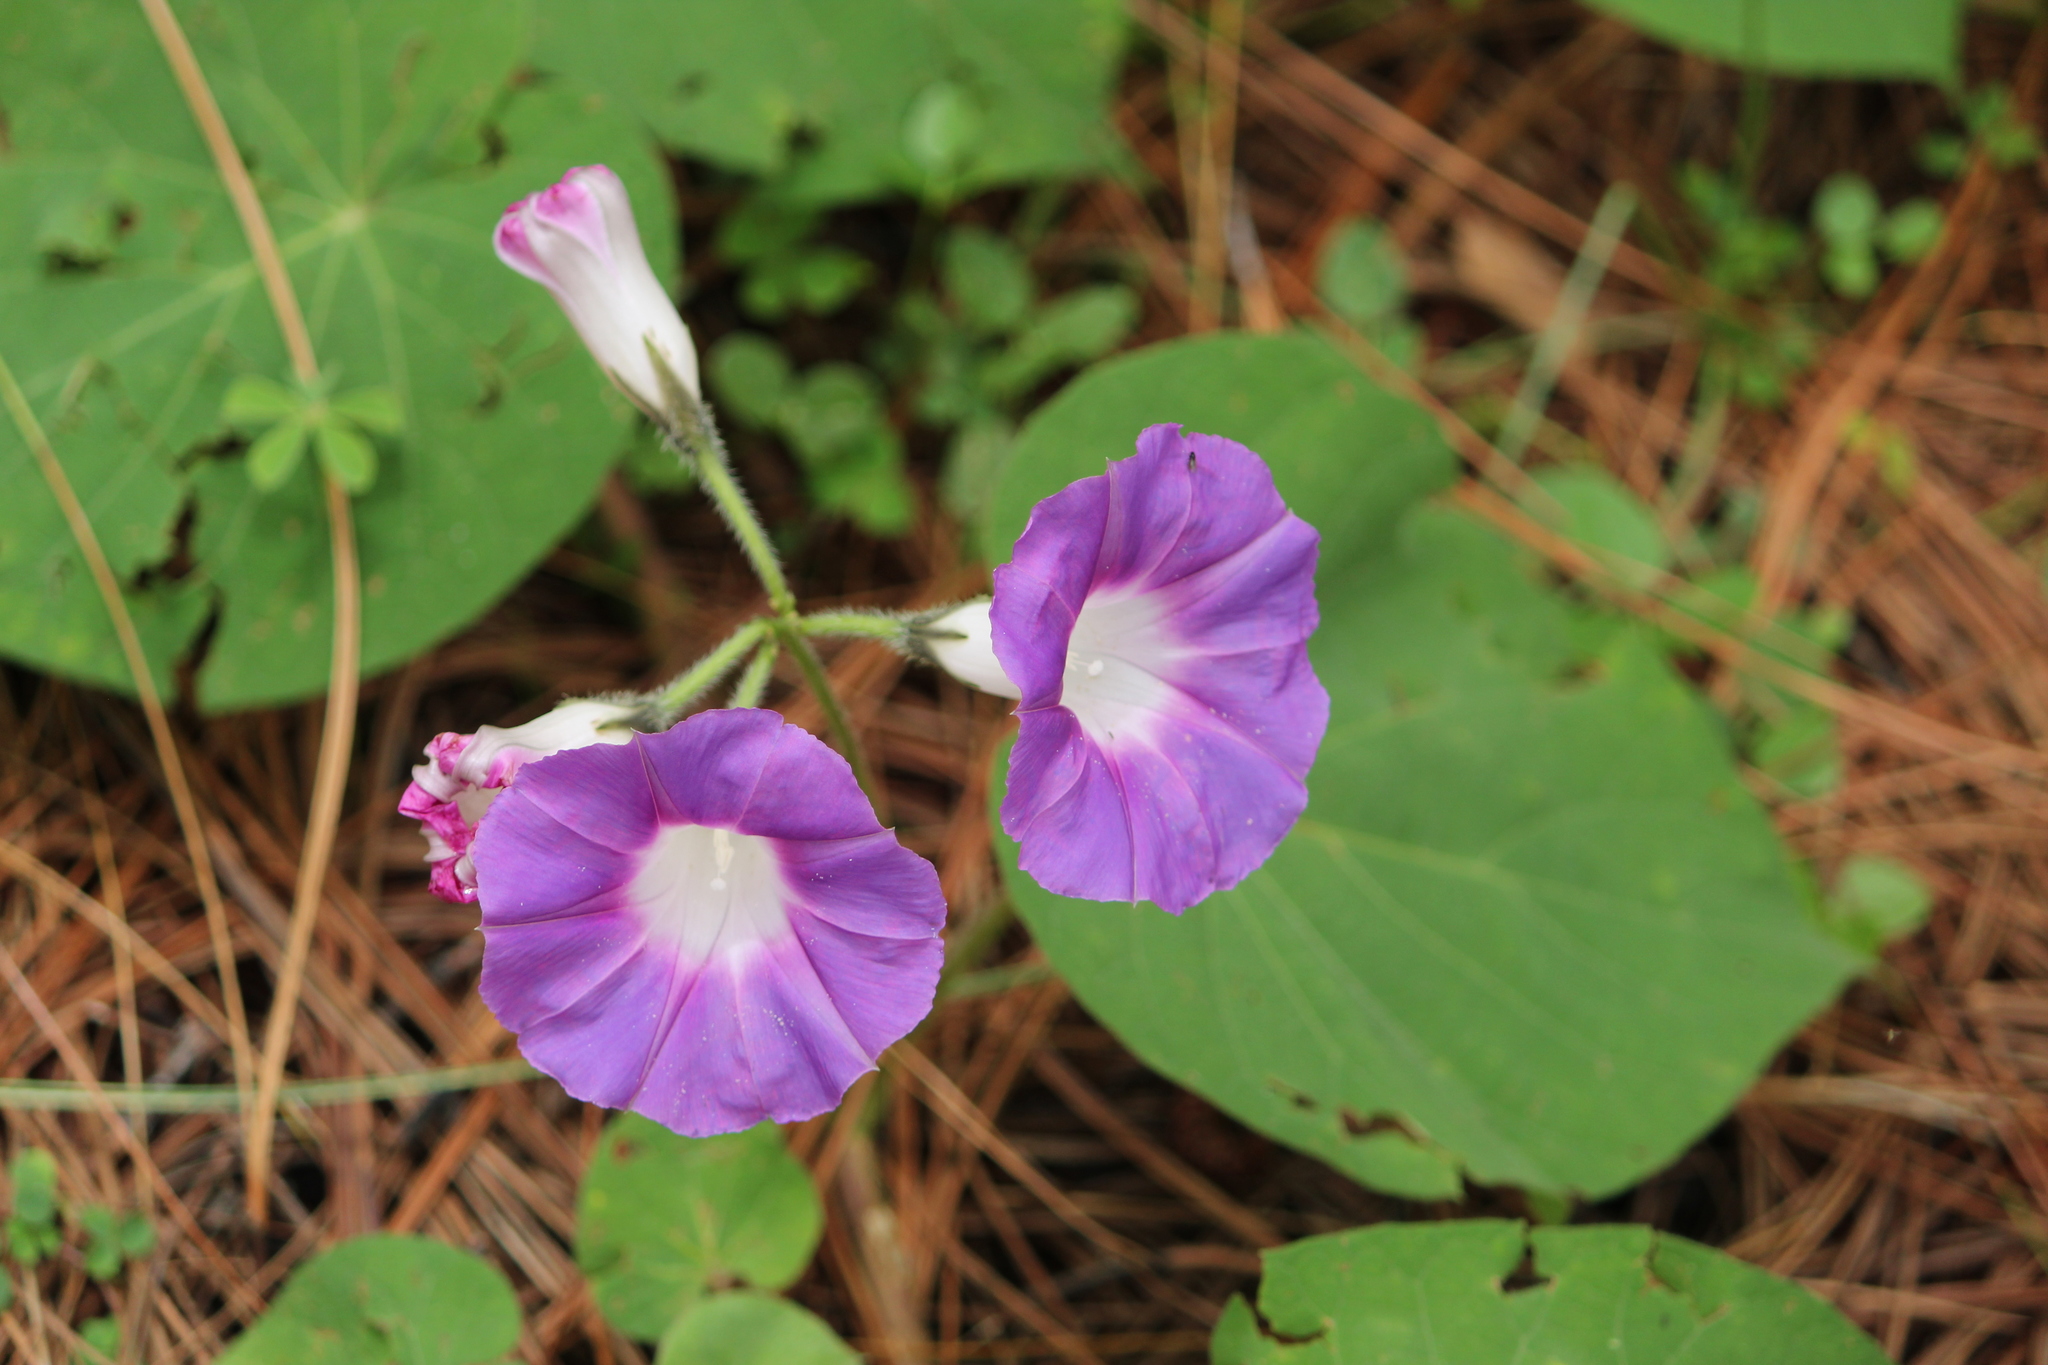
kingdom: Plantae
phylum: Tracheophyta
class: Magnoliopsida
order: Solanales
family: Convolvulaceae
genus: Ipomoea
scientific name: Ipomoea orizabensis
